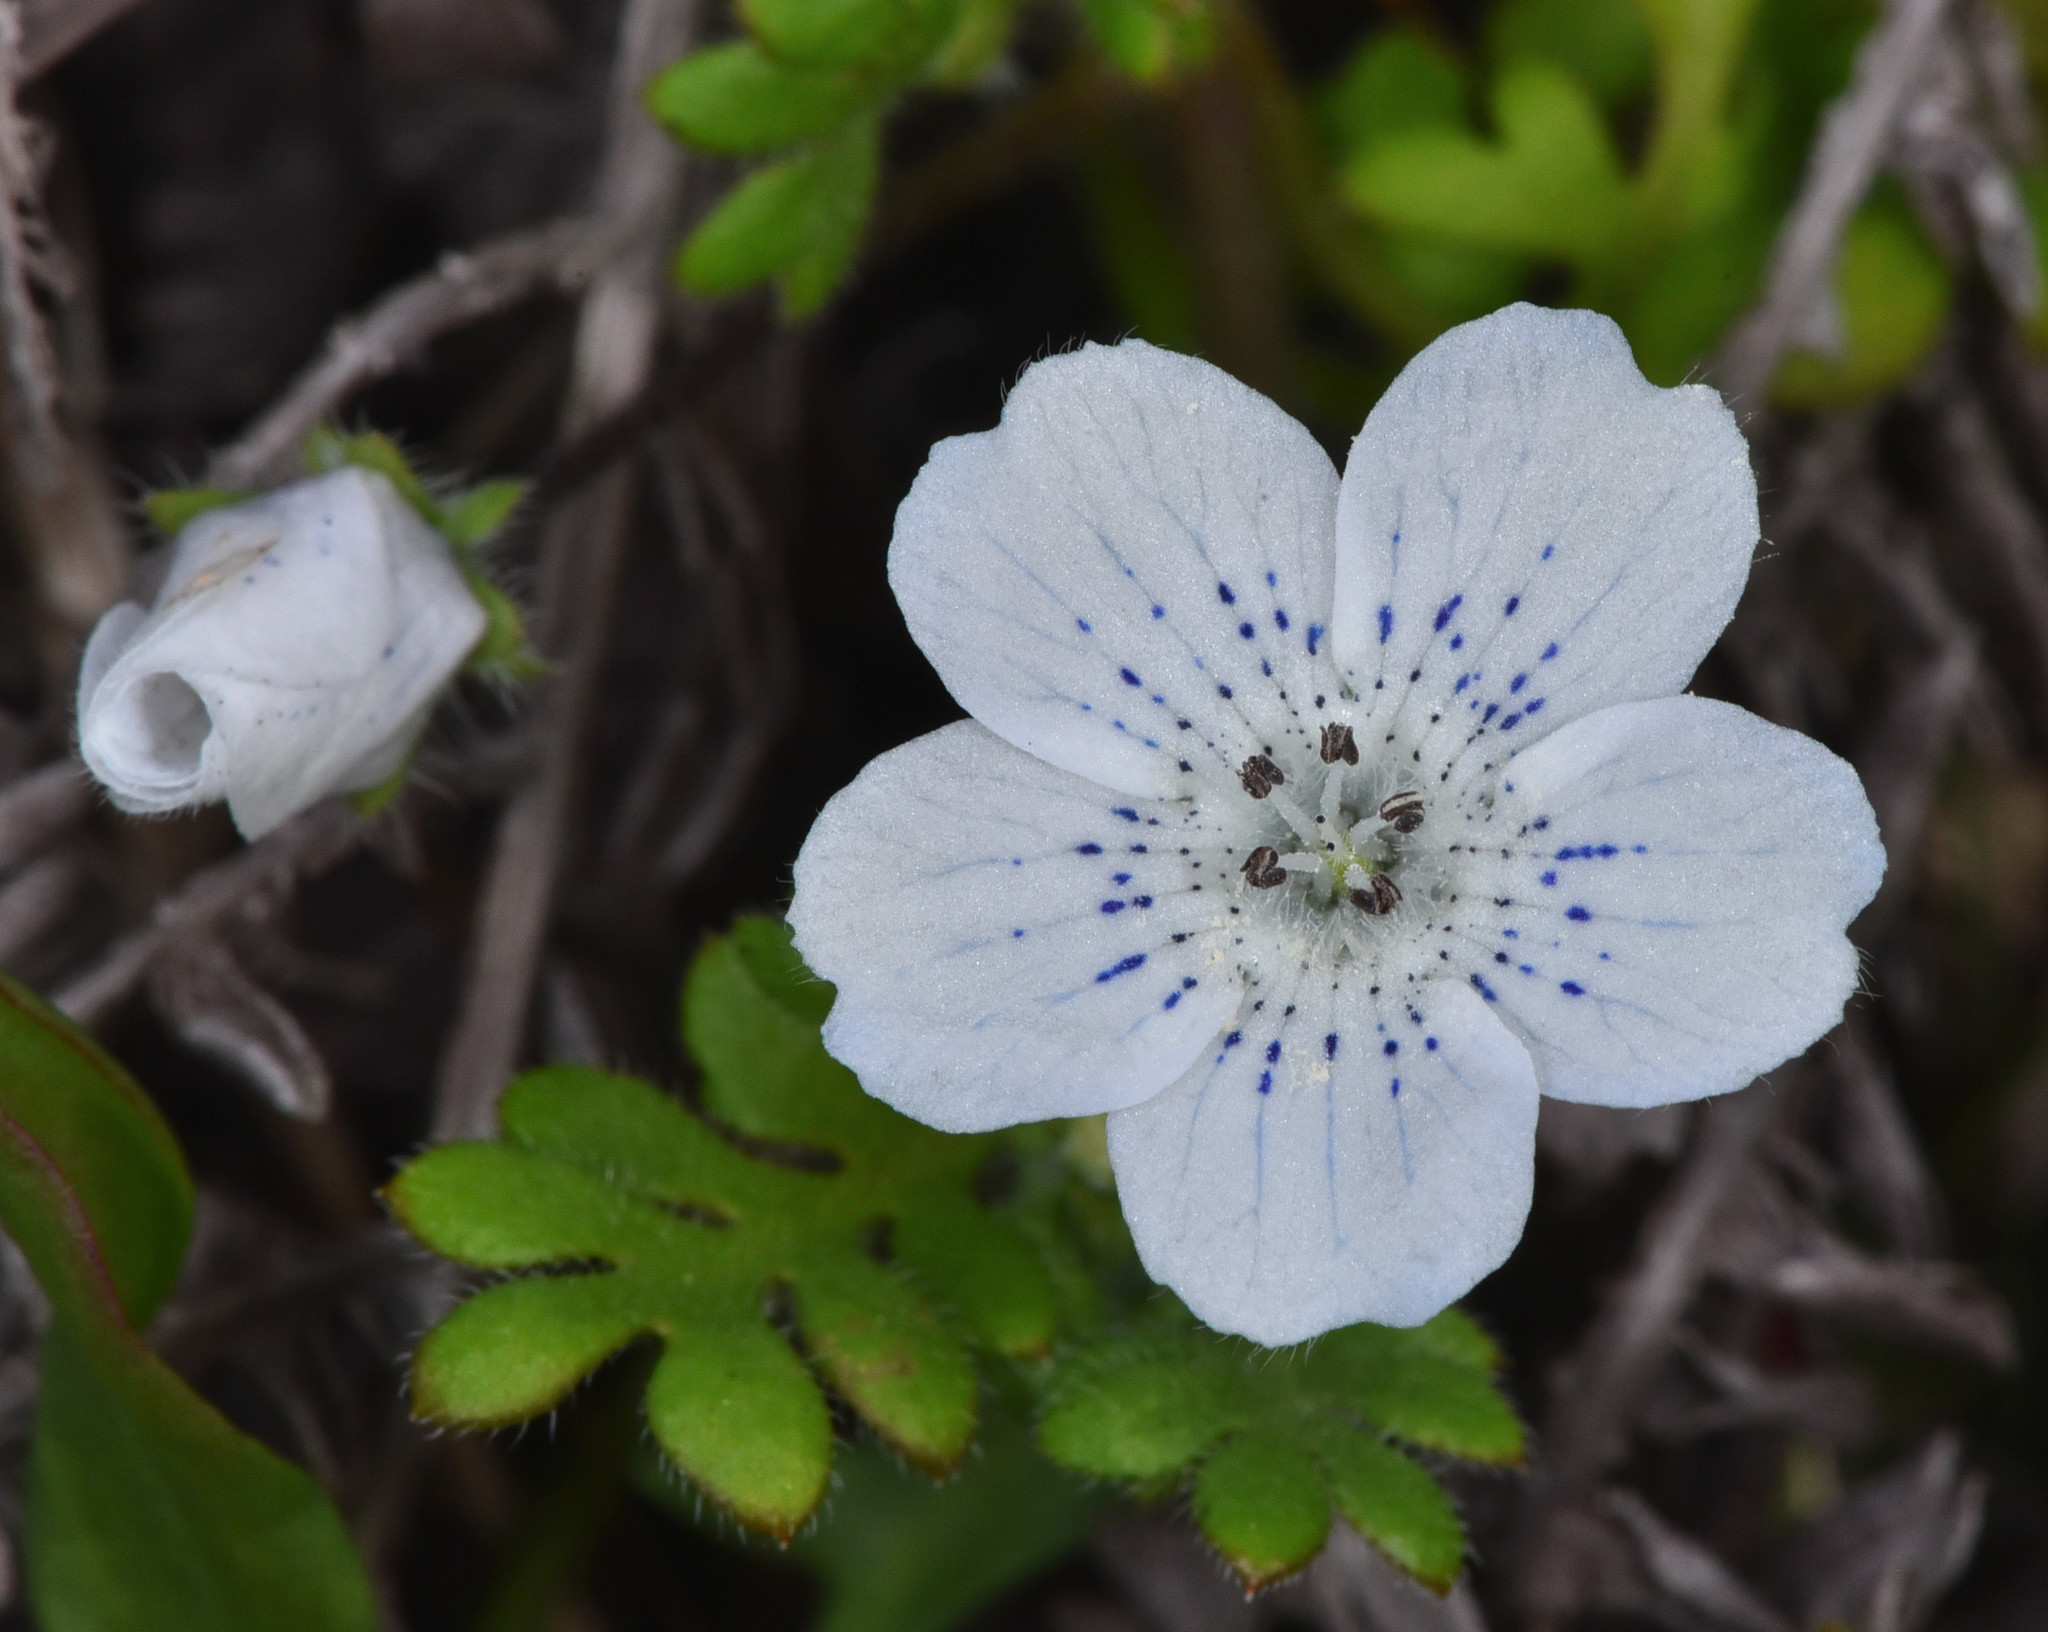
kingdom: Plantae
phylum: Tracheophyta
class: Magnoliopsida
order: Boraginales
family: Hydrophyllaceae
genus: Nemophila
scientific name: Nemophila menziesii
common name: Baby's-blue-eyes
